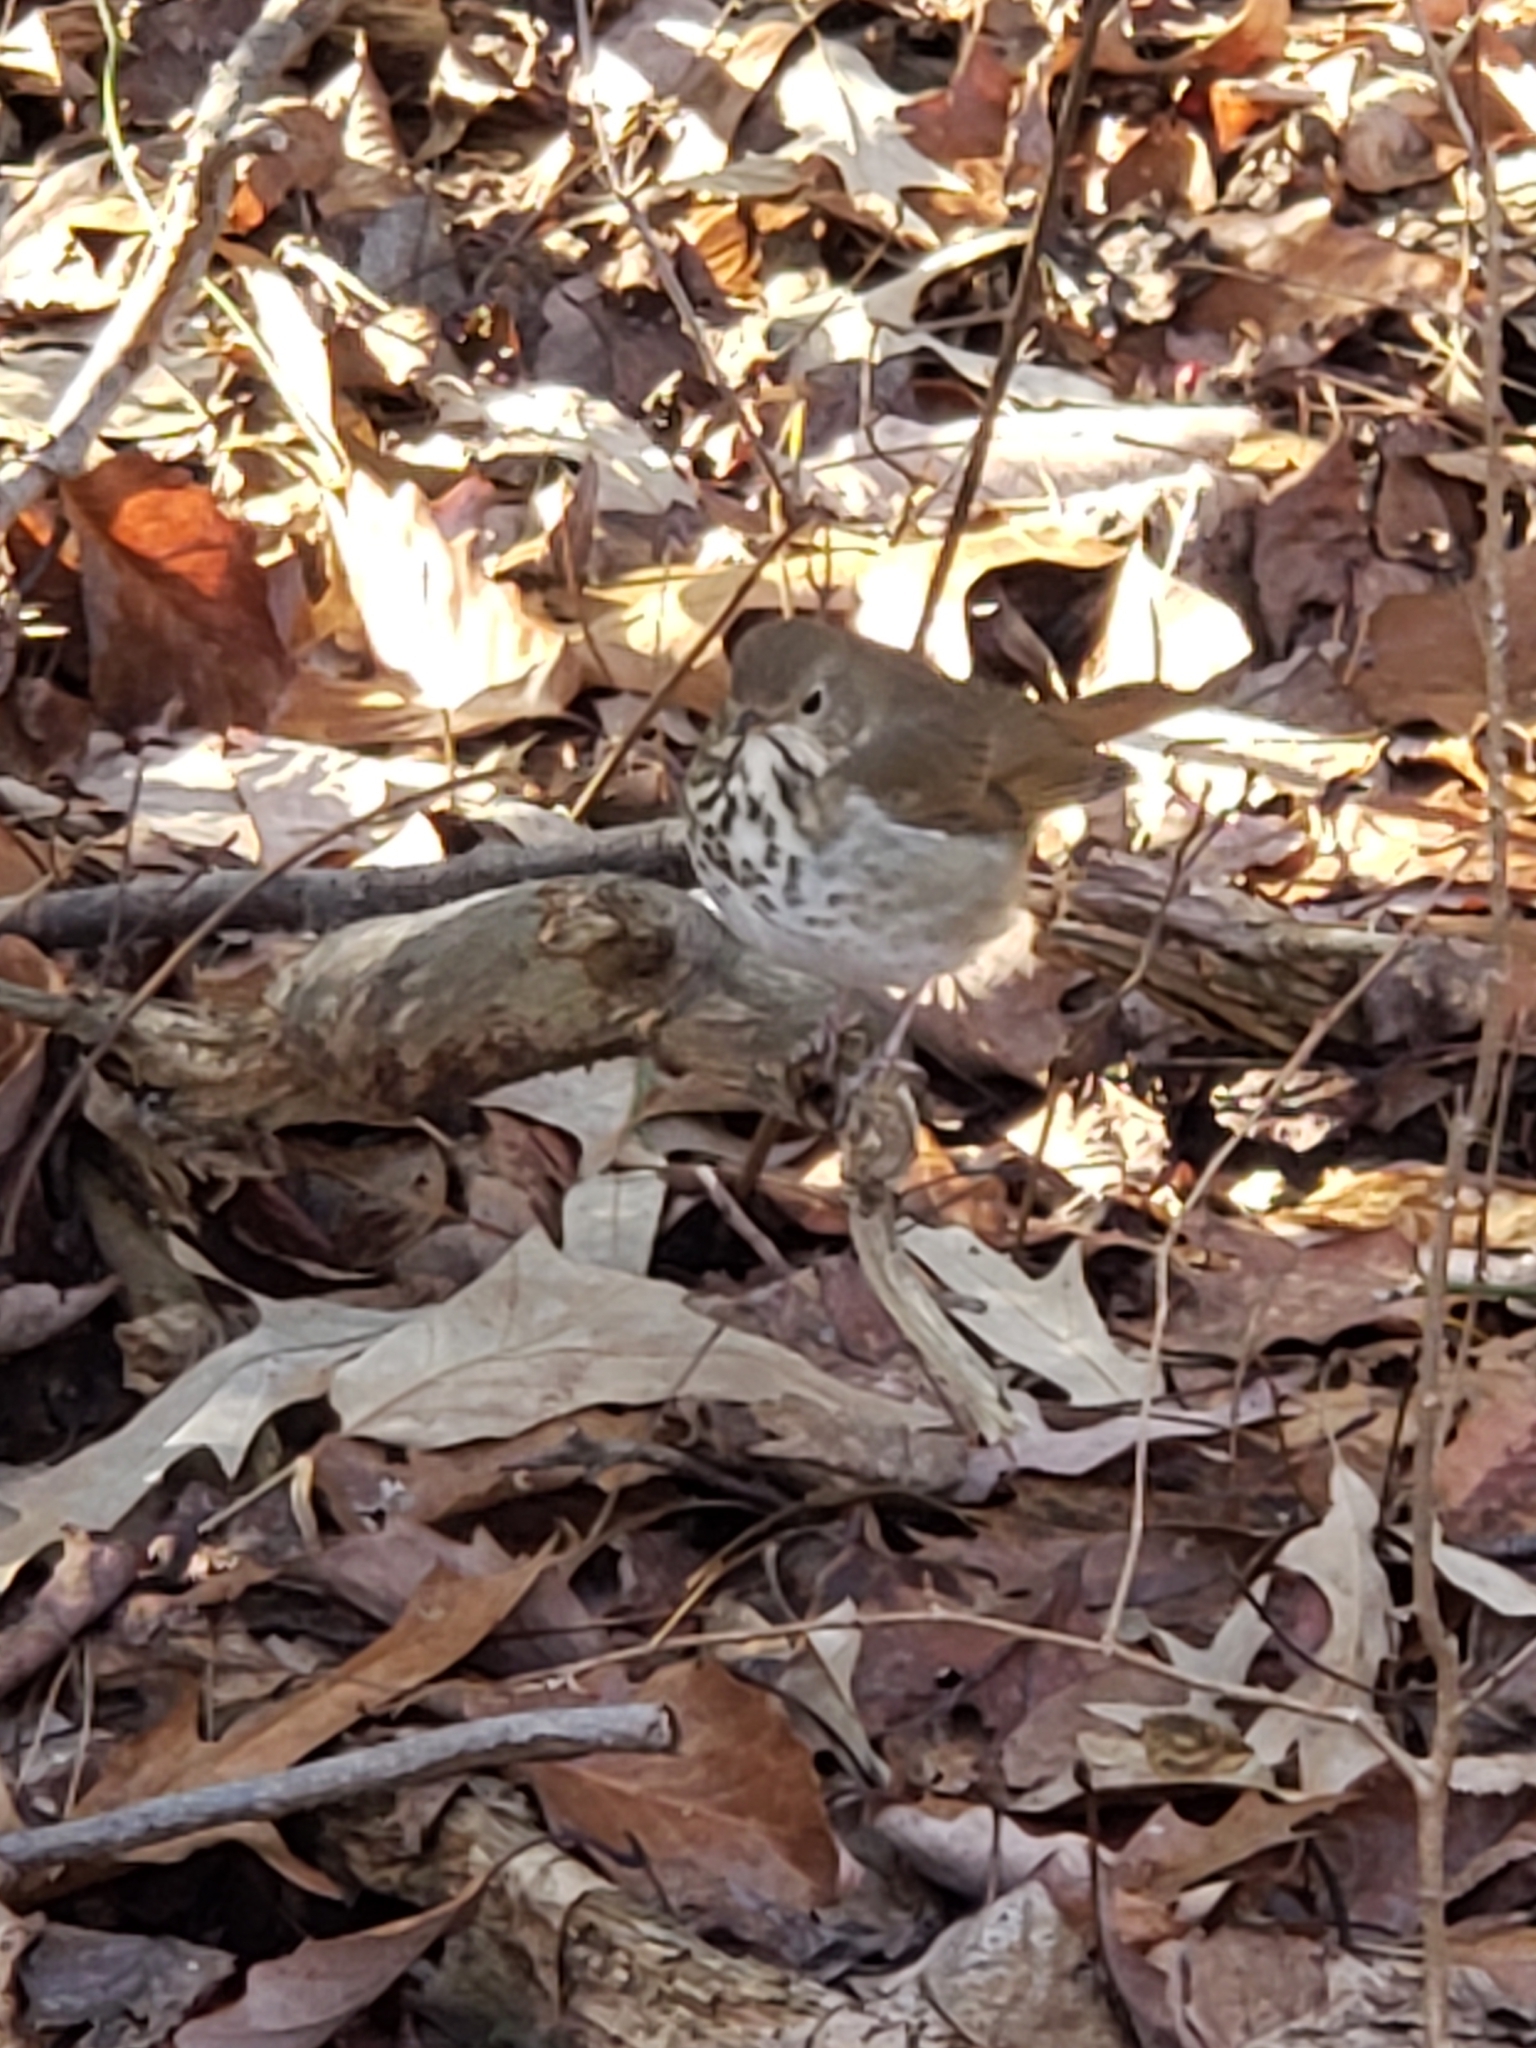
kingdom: Animalia
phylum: Chordata
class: Aves
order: Passeriformes
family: Turdidae
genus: Catharus
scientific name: Catharus guttatus
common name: Hermit thrush
